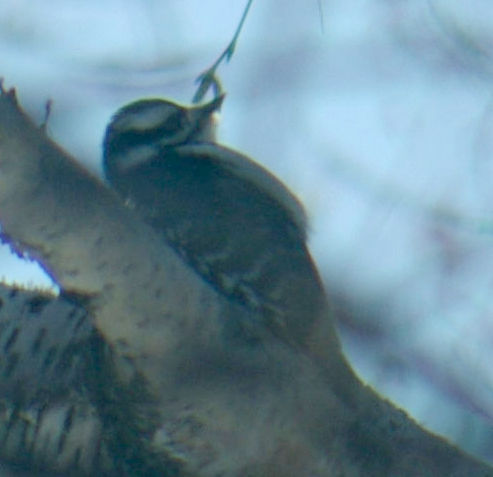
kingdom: Animalia
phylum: Chordata
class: Aves
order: Piciformes
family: Picidae
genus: Dryobates
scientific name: Dryobates pubescens
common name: Downy woodpecker
